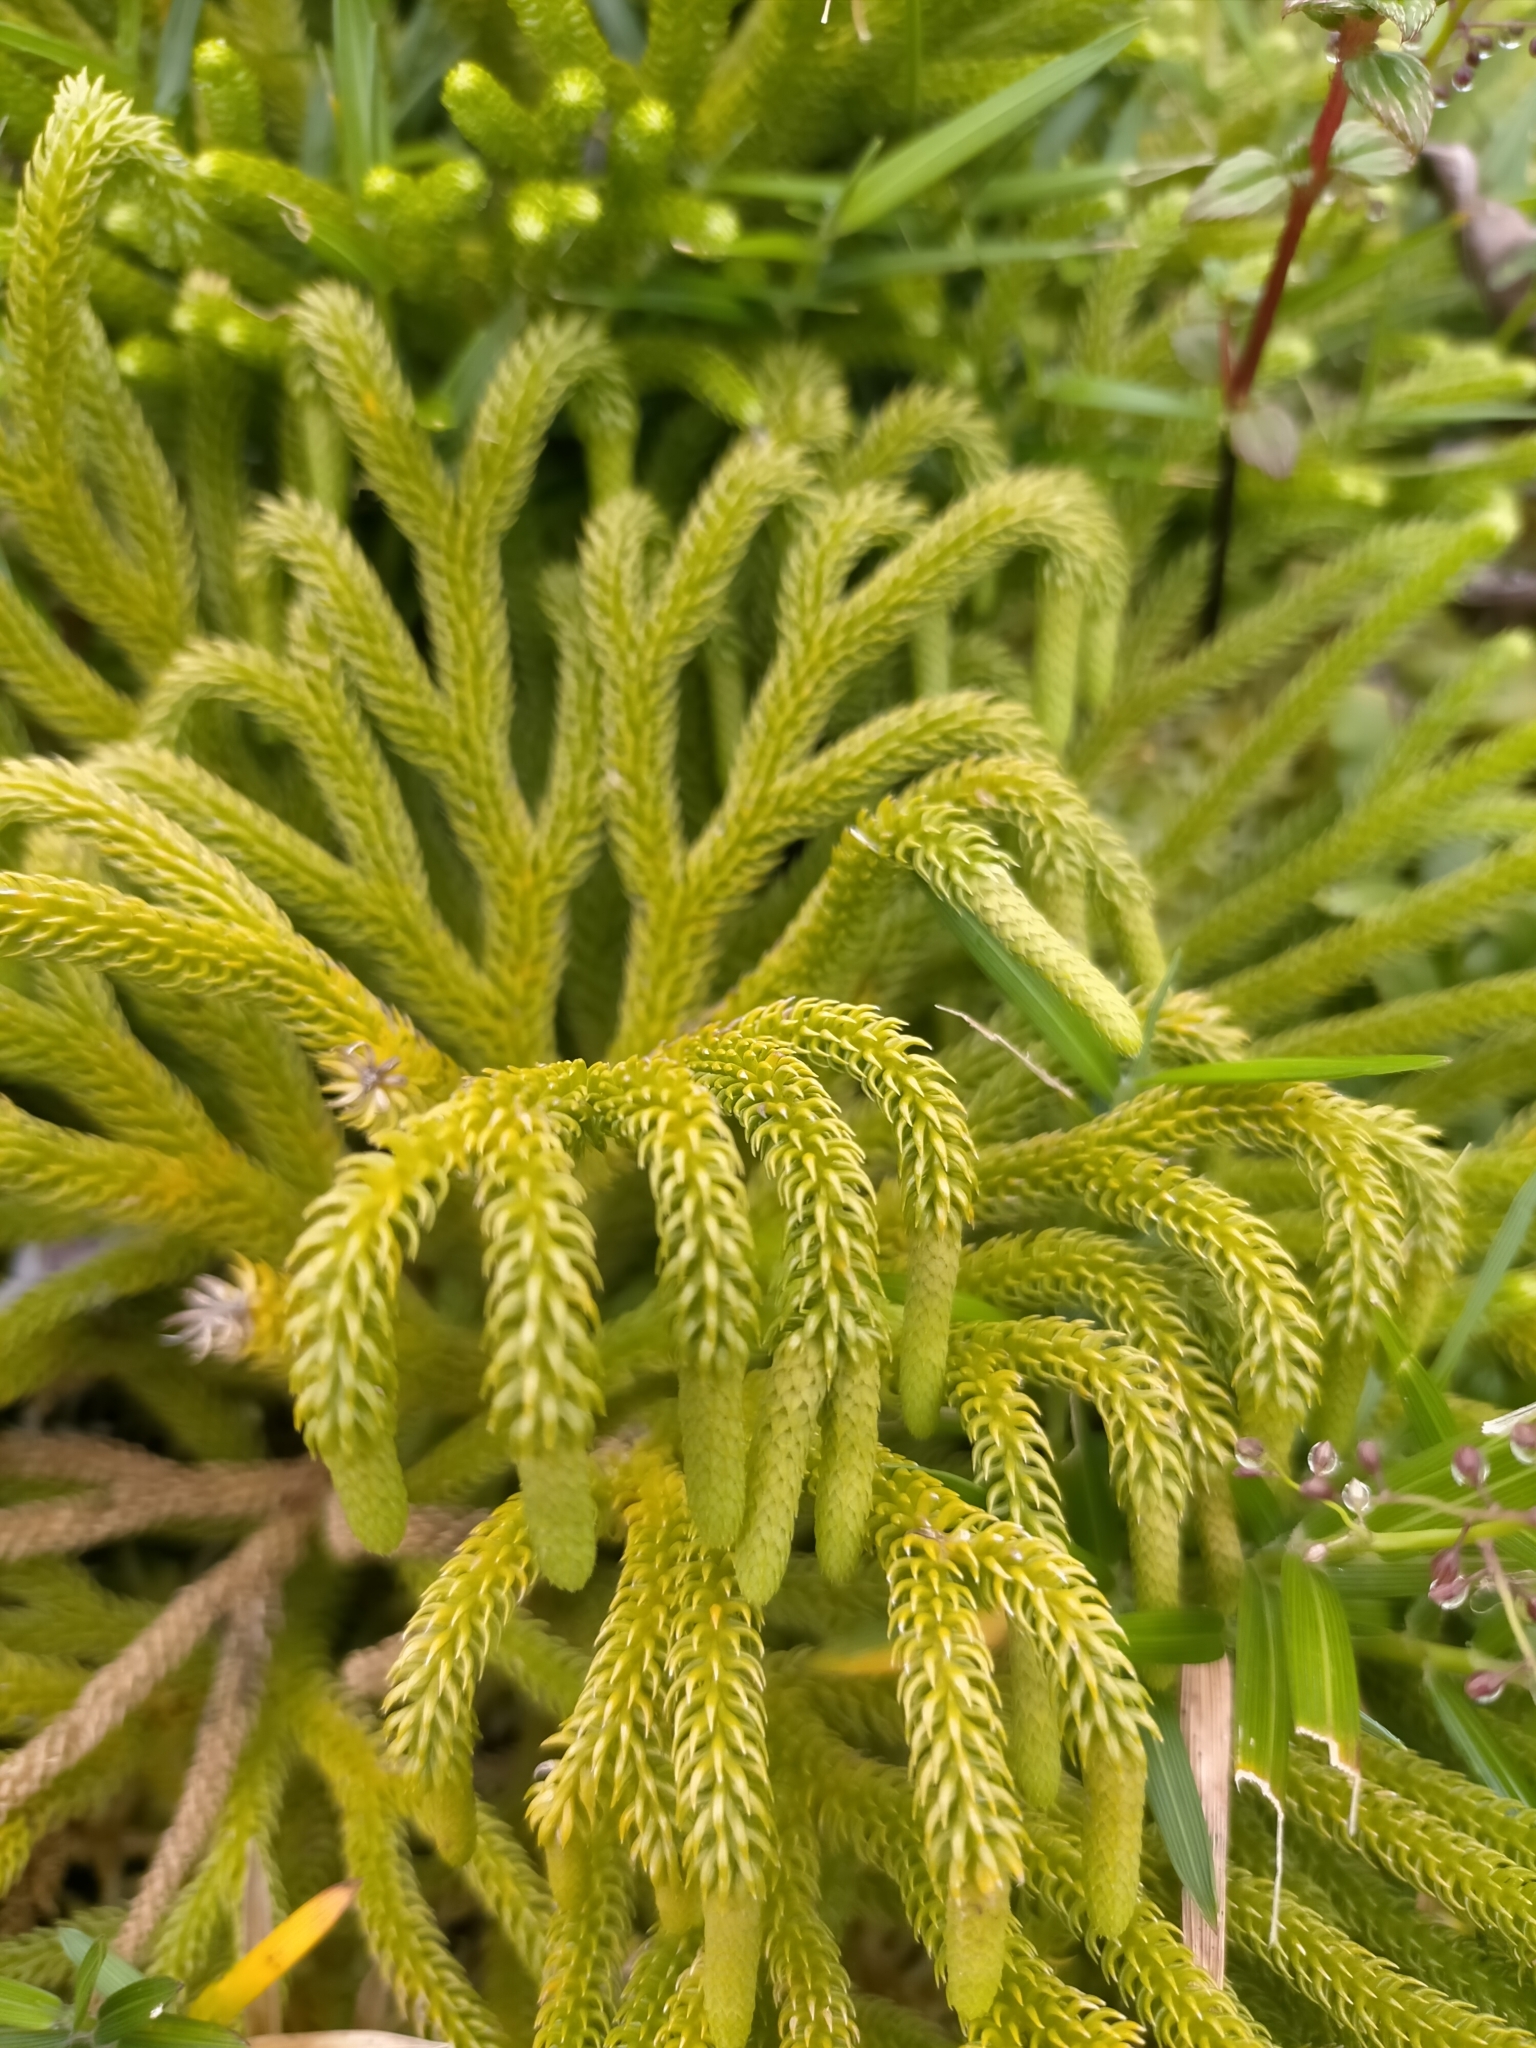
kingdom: Plantae
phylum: Tracheophyta
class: Lycopodiopsida
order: Lycopodiales
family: Lycopodiaceae
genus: Palhinhaea
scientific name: Palhinhaea torta
